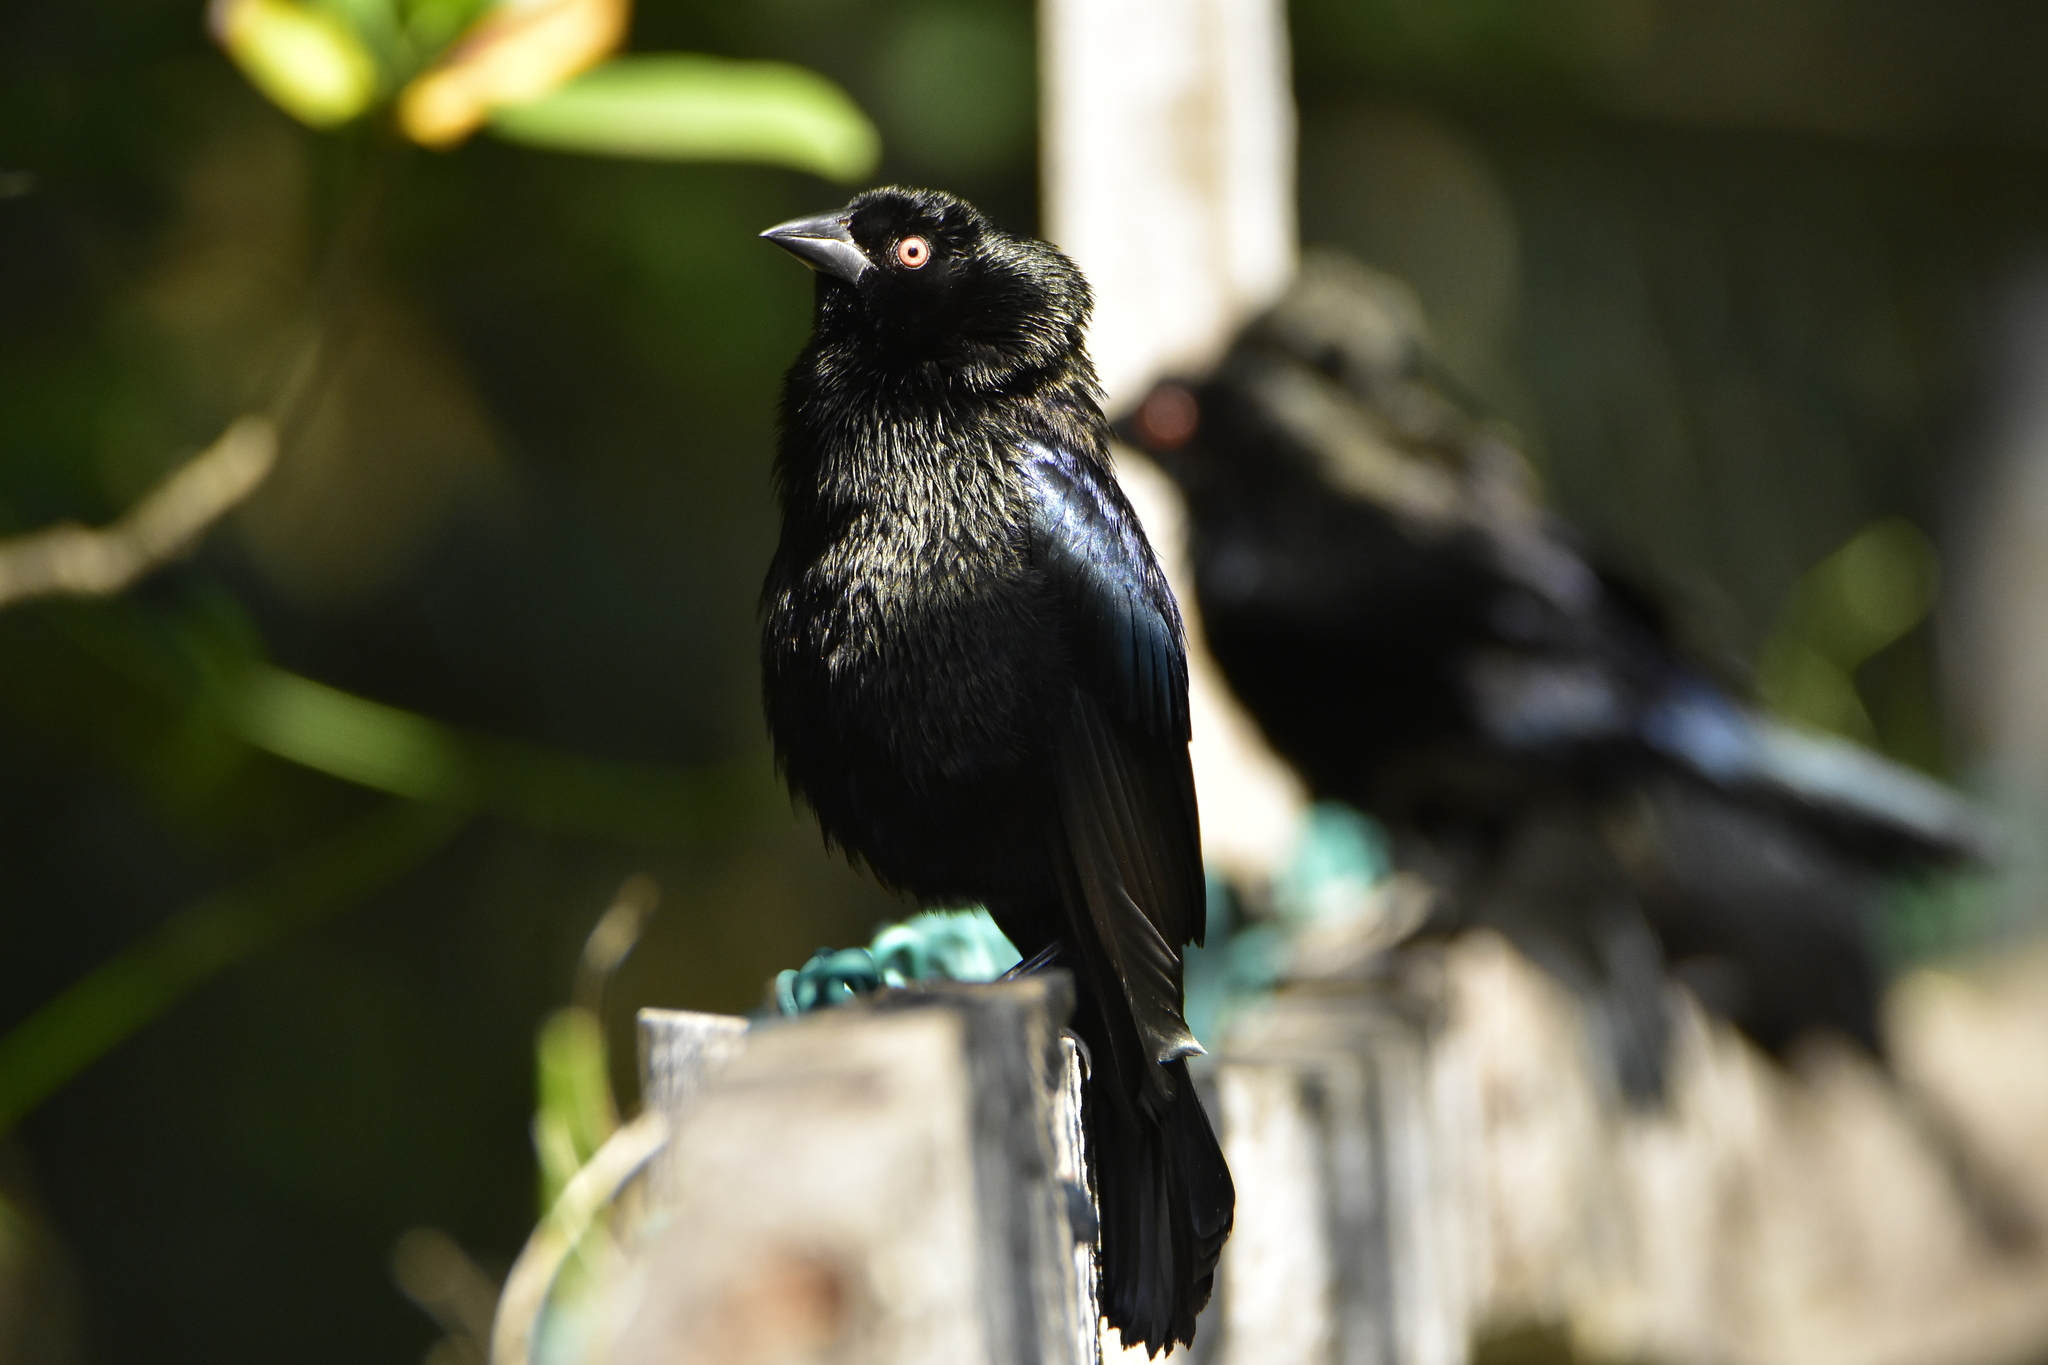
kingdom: Animalia
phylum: Chordata
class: Aves
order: Passeriformes
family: Icteridae
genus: Molothrus
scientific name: Molothrus aeneus
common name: Bronzed cowbird
